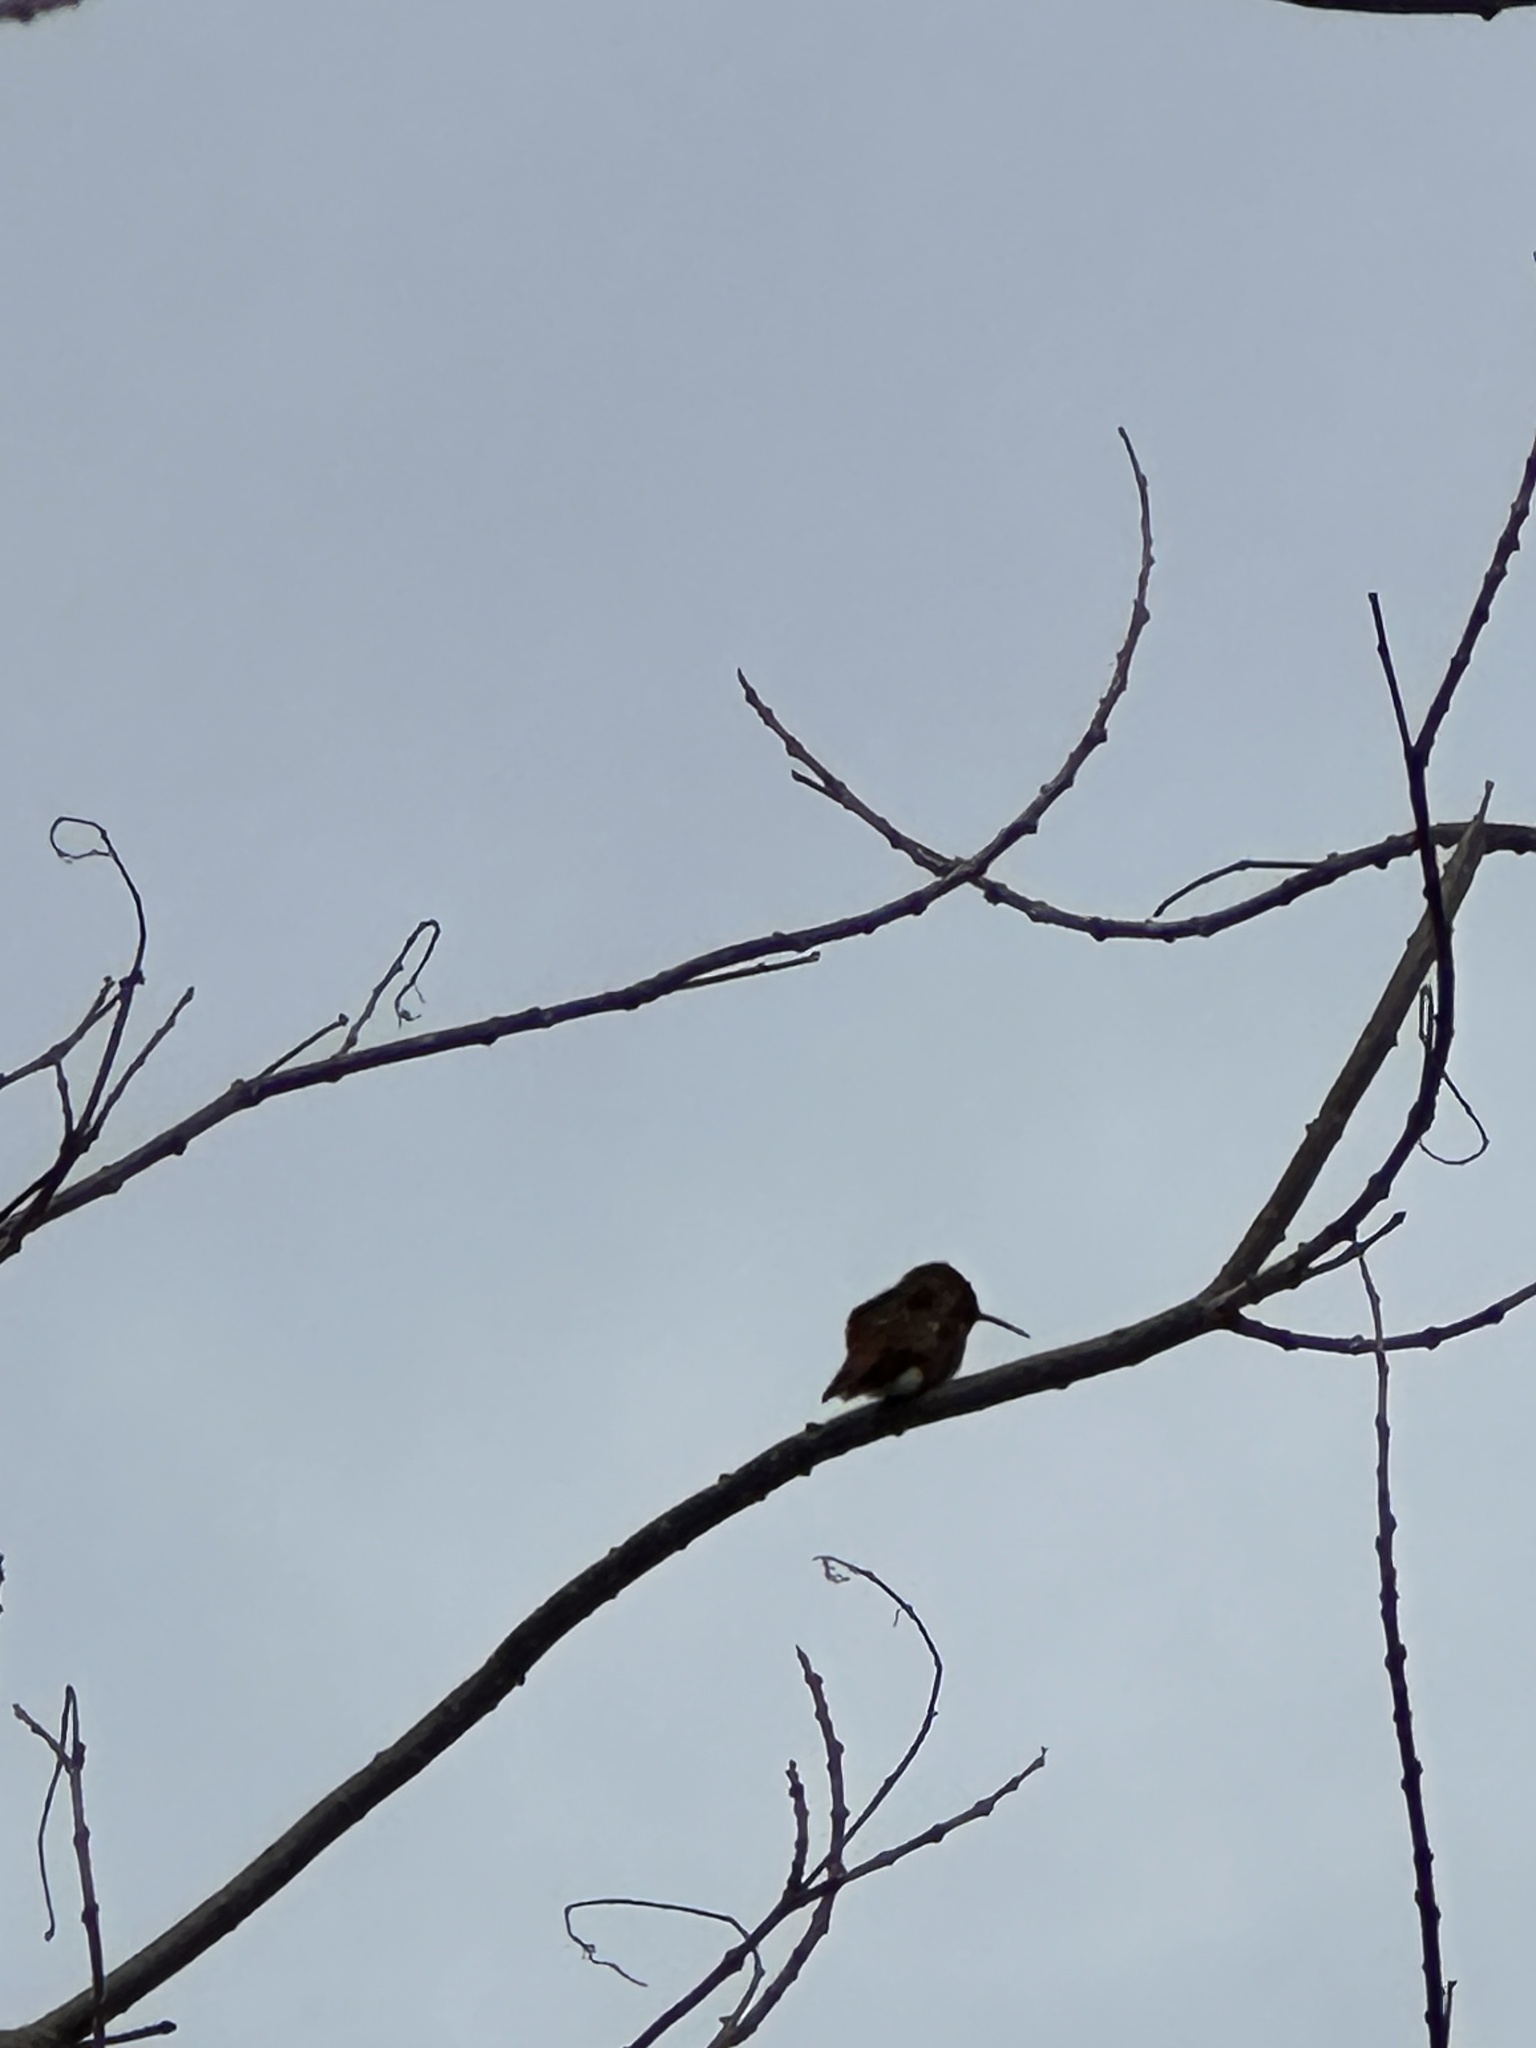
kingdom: Animalia
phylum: Chordata
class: Aves
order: Apodiformes
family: Trochilidae
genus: Selasphorus
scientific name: Selasphorus sasin
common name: Allen's hummingbird
